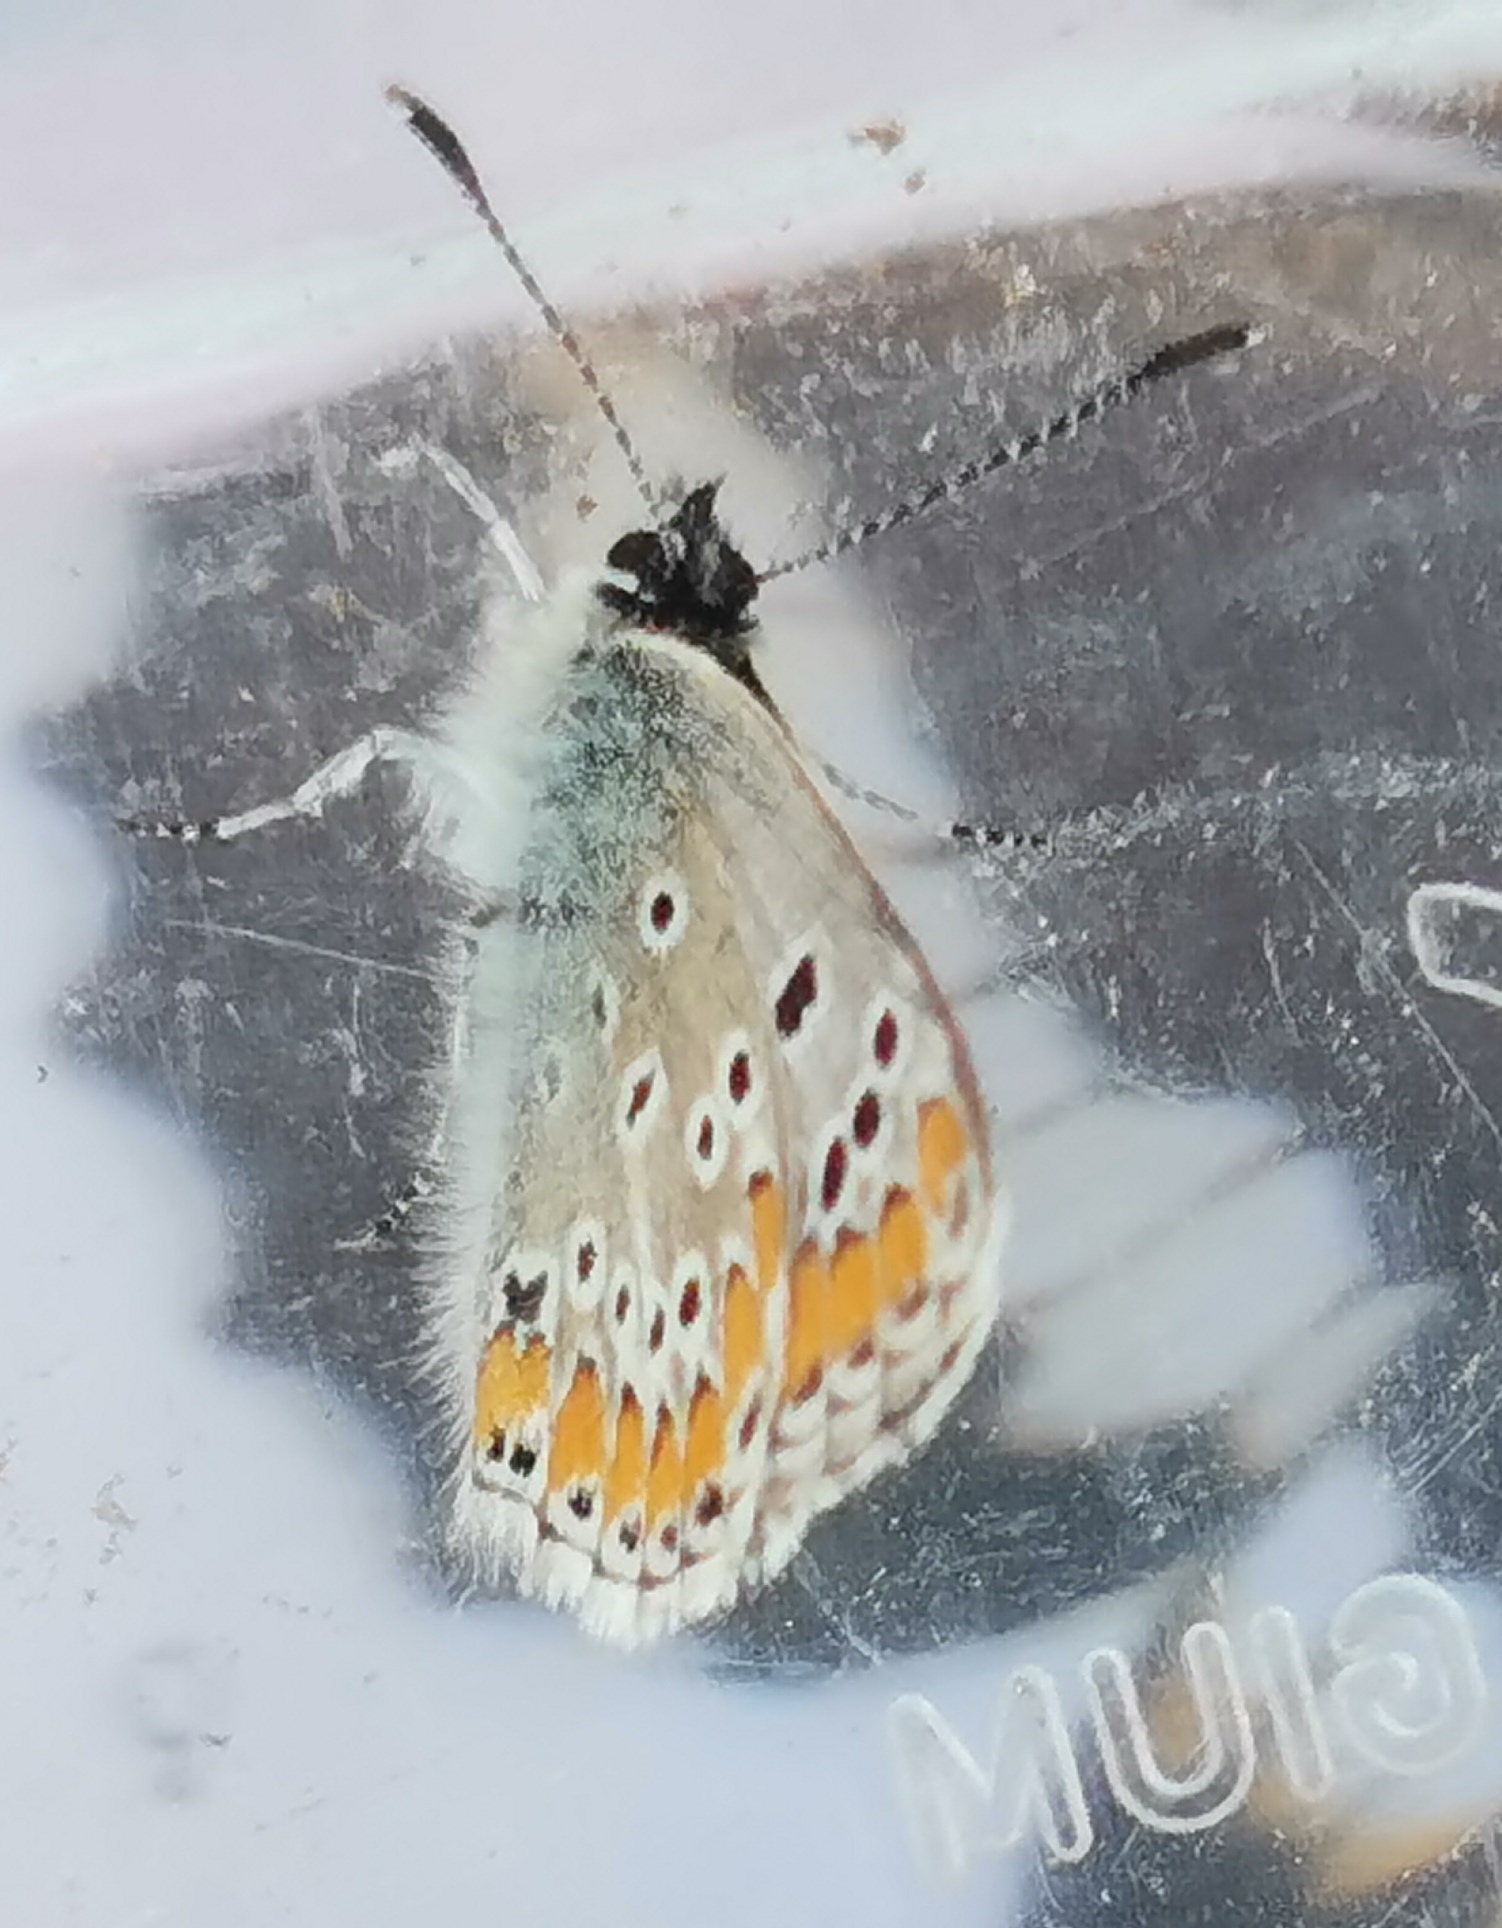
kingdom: Animalia
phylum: Arthropoda
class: Insecta
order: Lepidoptera
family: Lycaenidae
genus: Aricia
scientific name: Aricia agestis
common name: Brown argus
